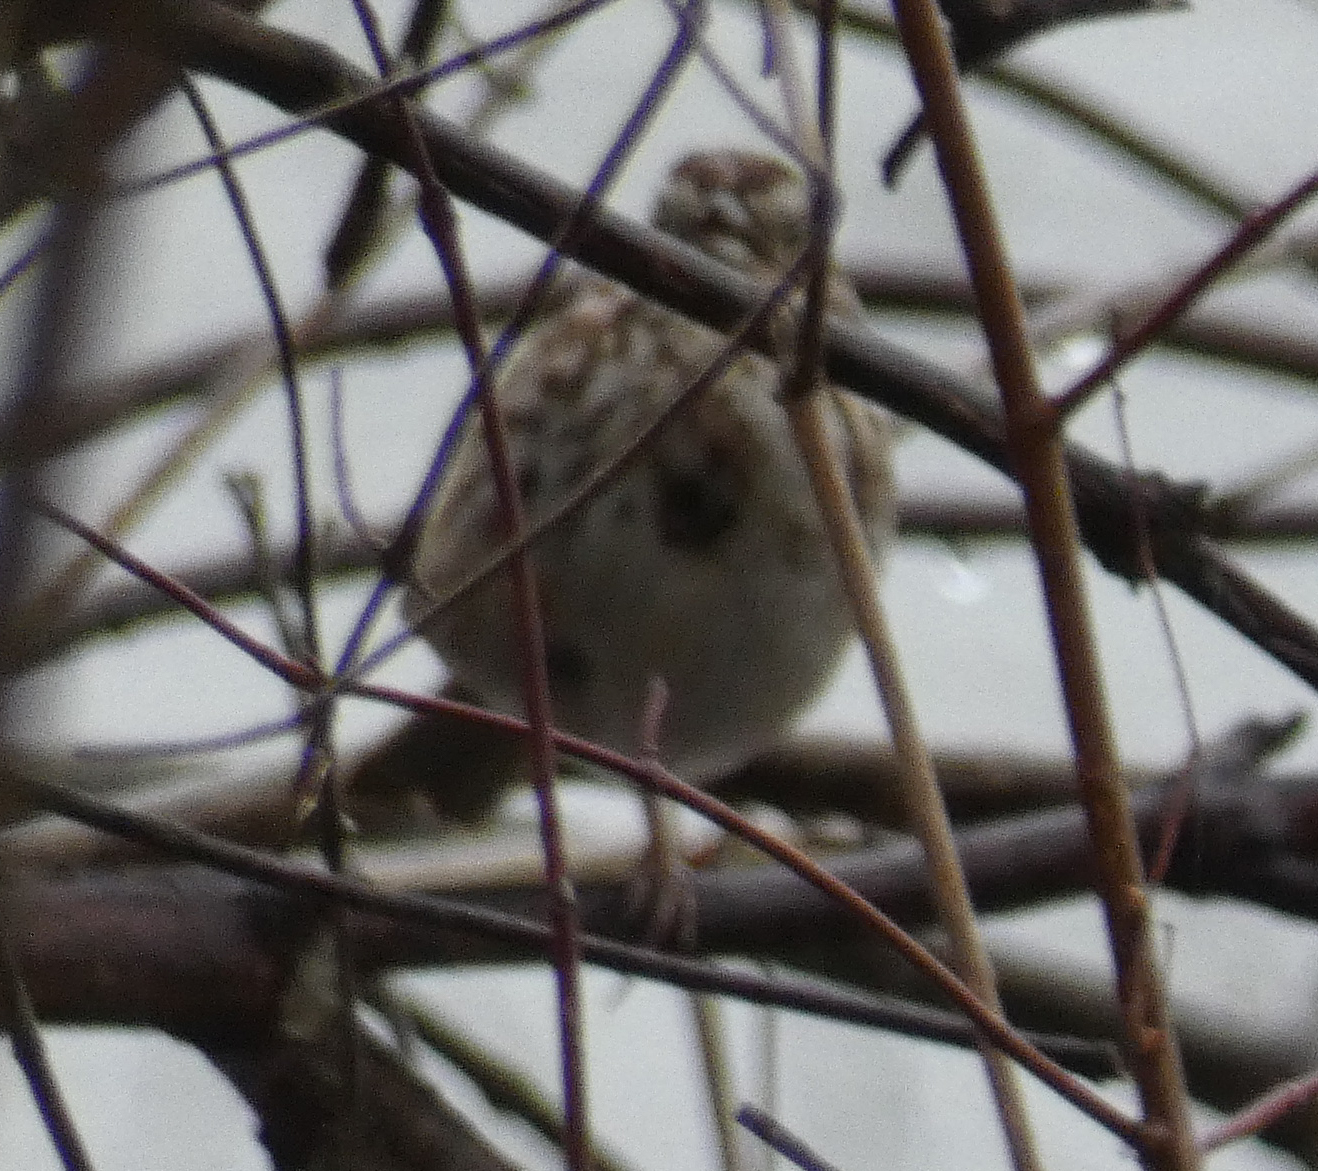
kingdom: Animalia
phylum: Chordata
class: Aves
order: Passeriformes
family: Passerellidae
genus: Melospiza
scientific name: Melospiza melodia
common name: Song sparrow
